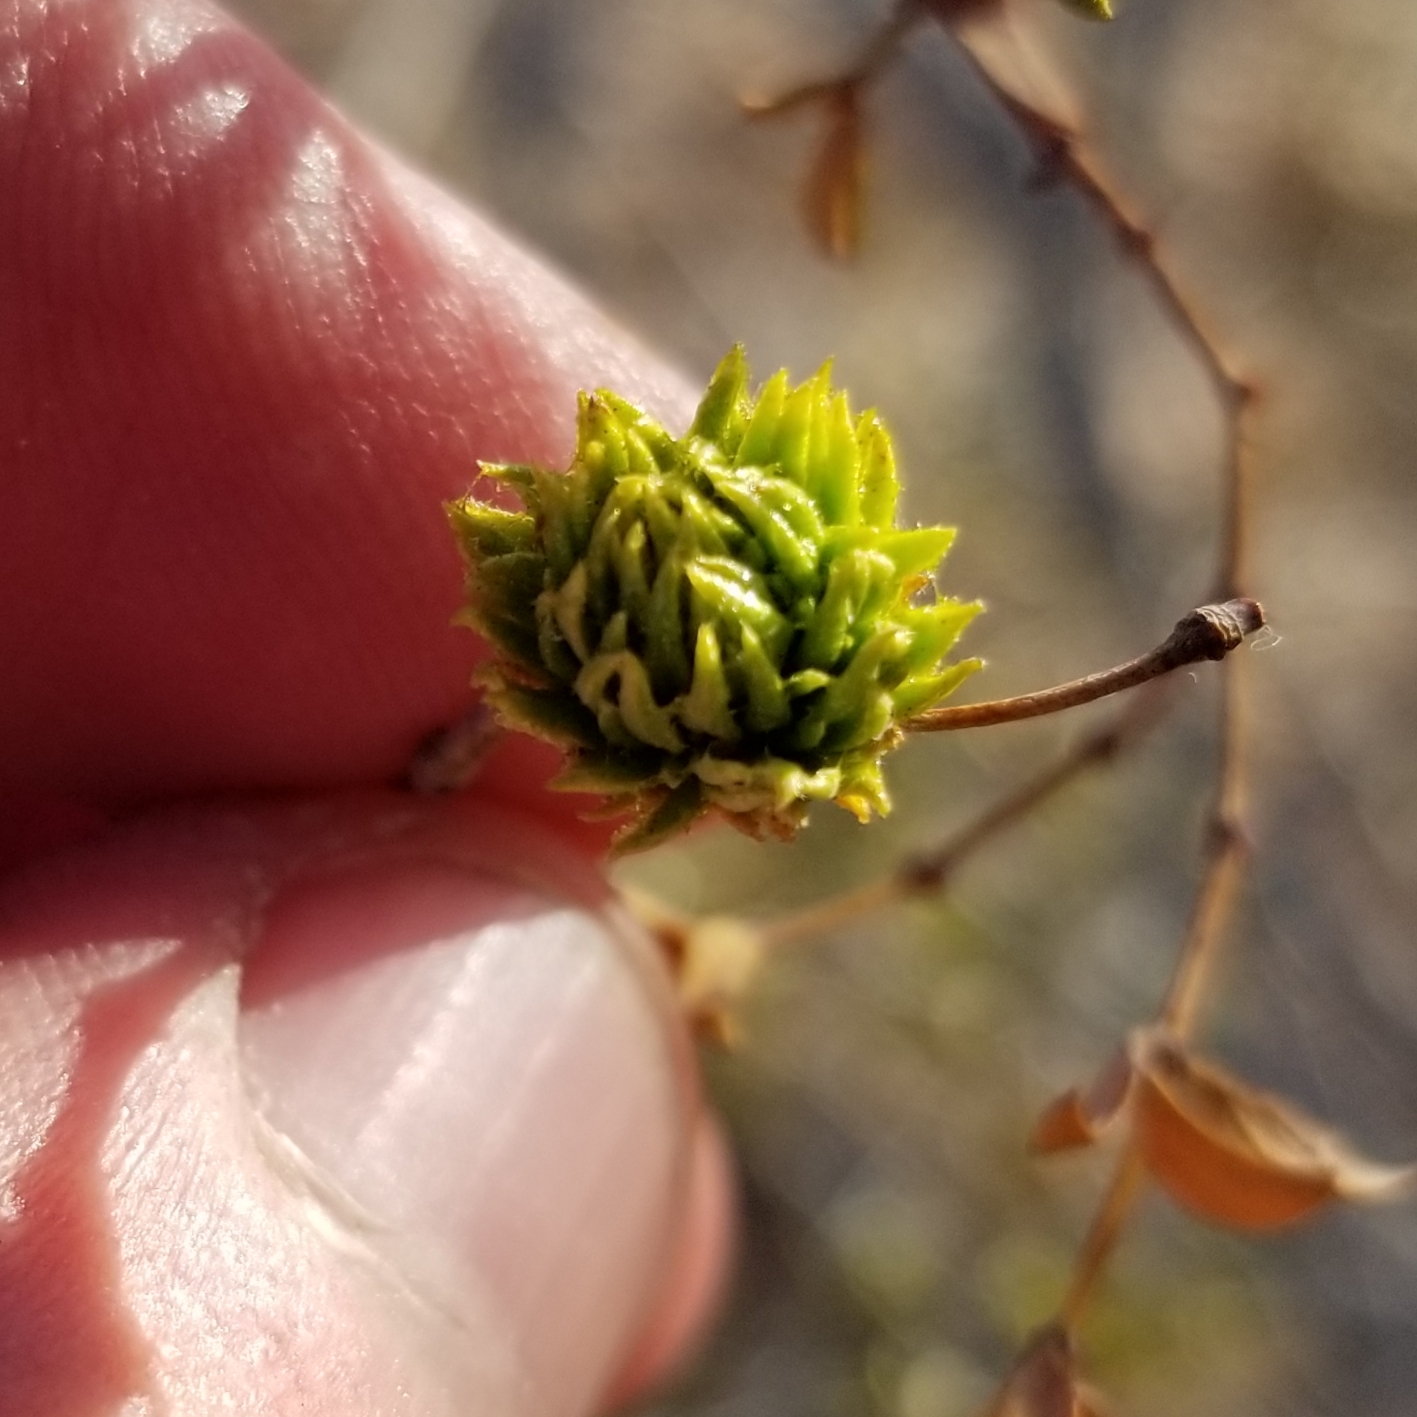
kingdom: Animalia
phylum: Arthropoda
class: Insecta
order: Diptera
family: Cecidomyiidae
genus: Asphondylia
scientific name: Asphondylia foliosa
